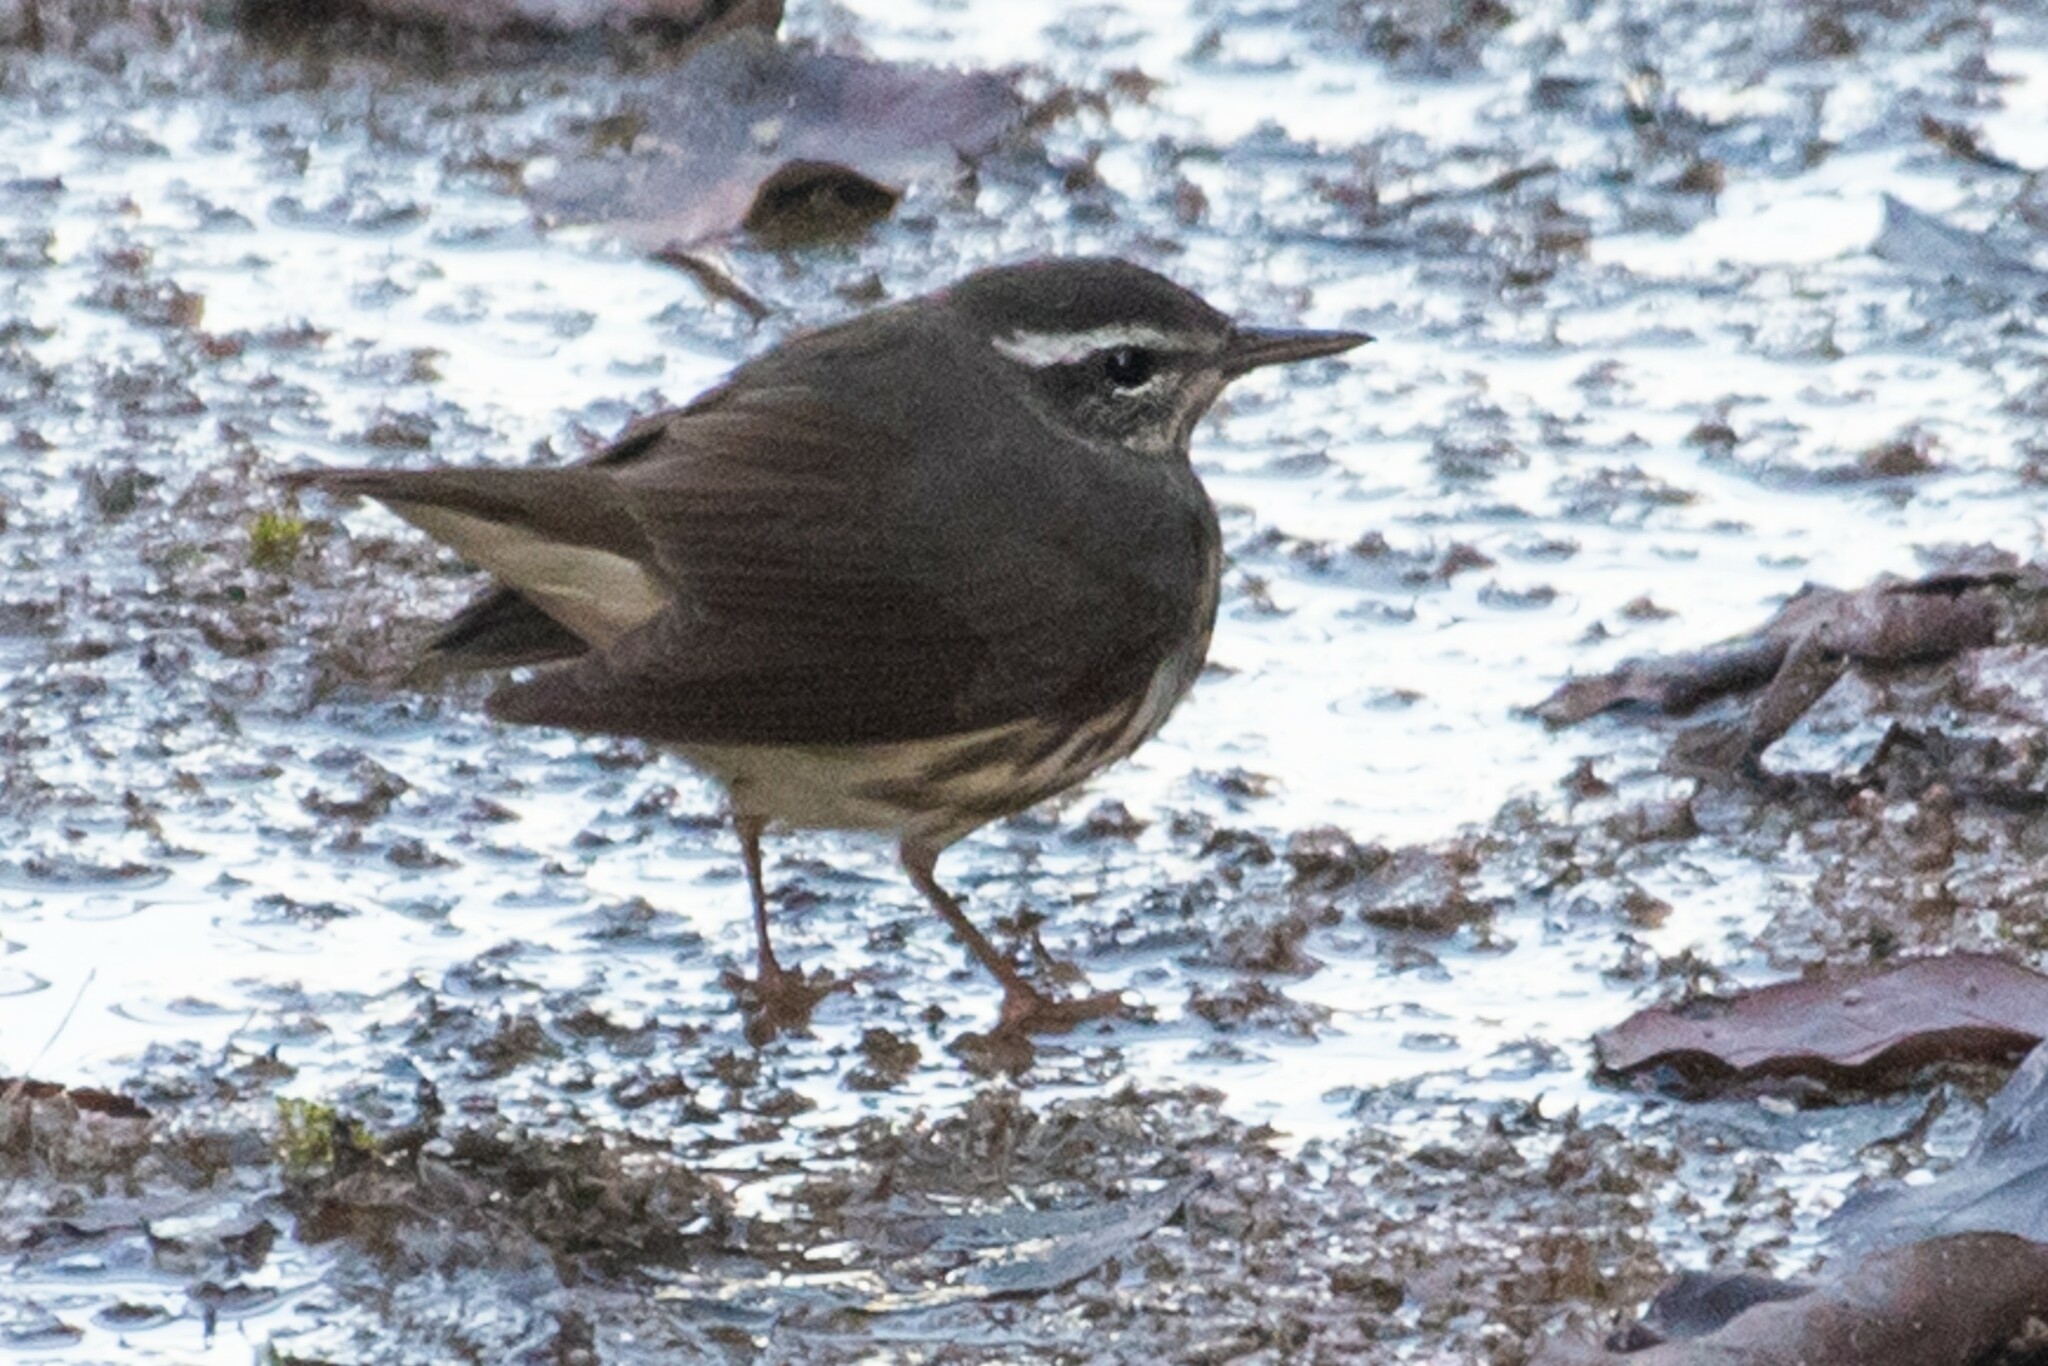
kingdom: Animalia
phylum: Chordata
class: Aves
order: Passeriformes
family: Parulidae
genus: Parkesia
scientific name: Parkesia motacilla
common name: Louisiana waterthrush
